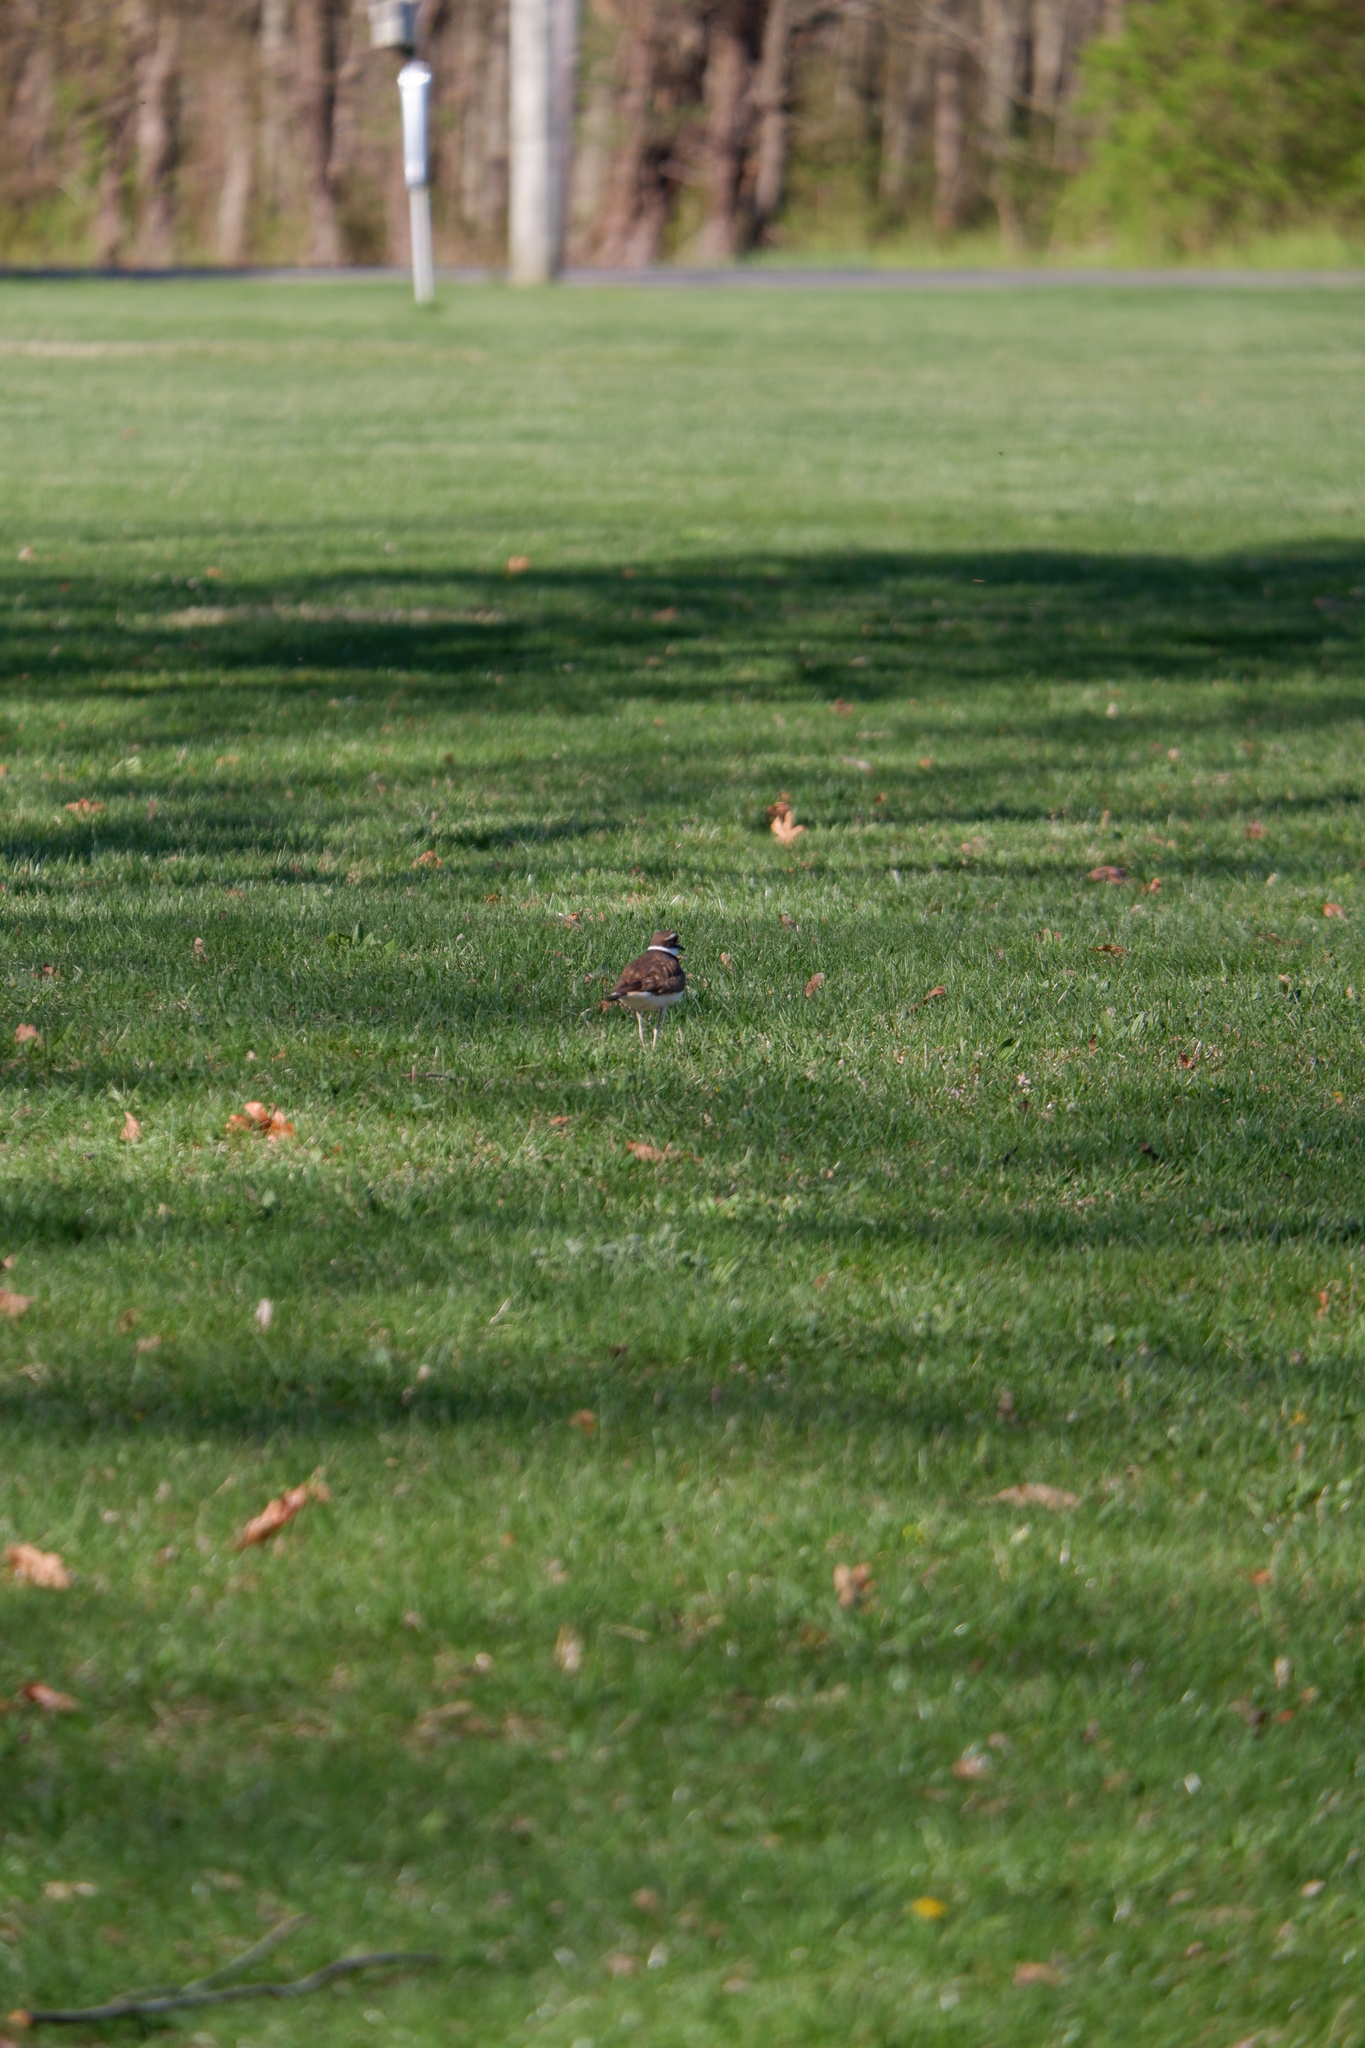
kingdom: Animalia
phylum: Chordata
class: Aves
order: Charadriiformes
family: Charadriidae
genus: Charadrius
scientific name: Charadrius vociferus
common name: Killdeer
